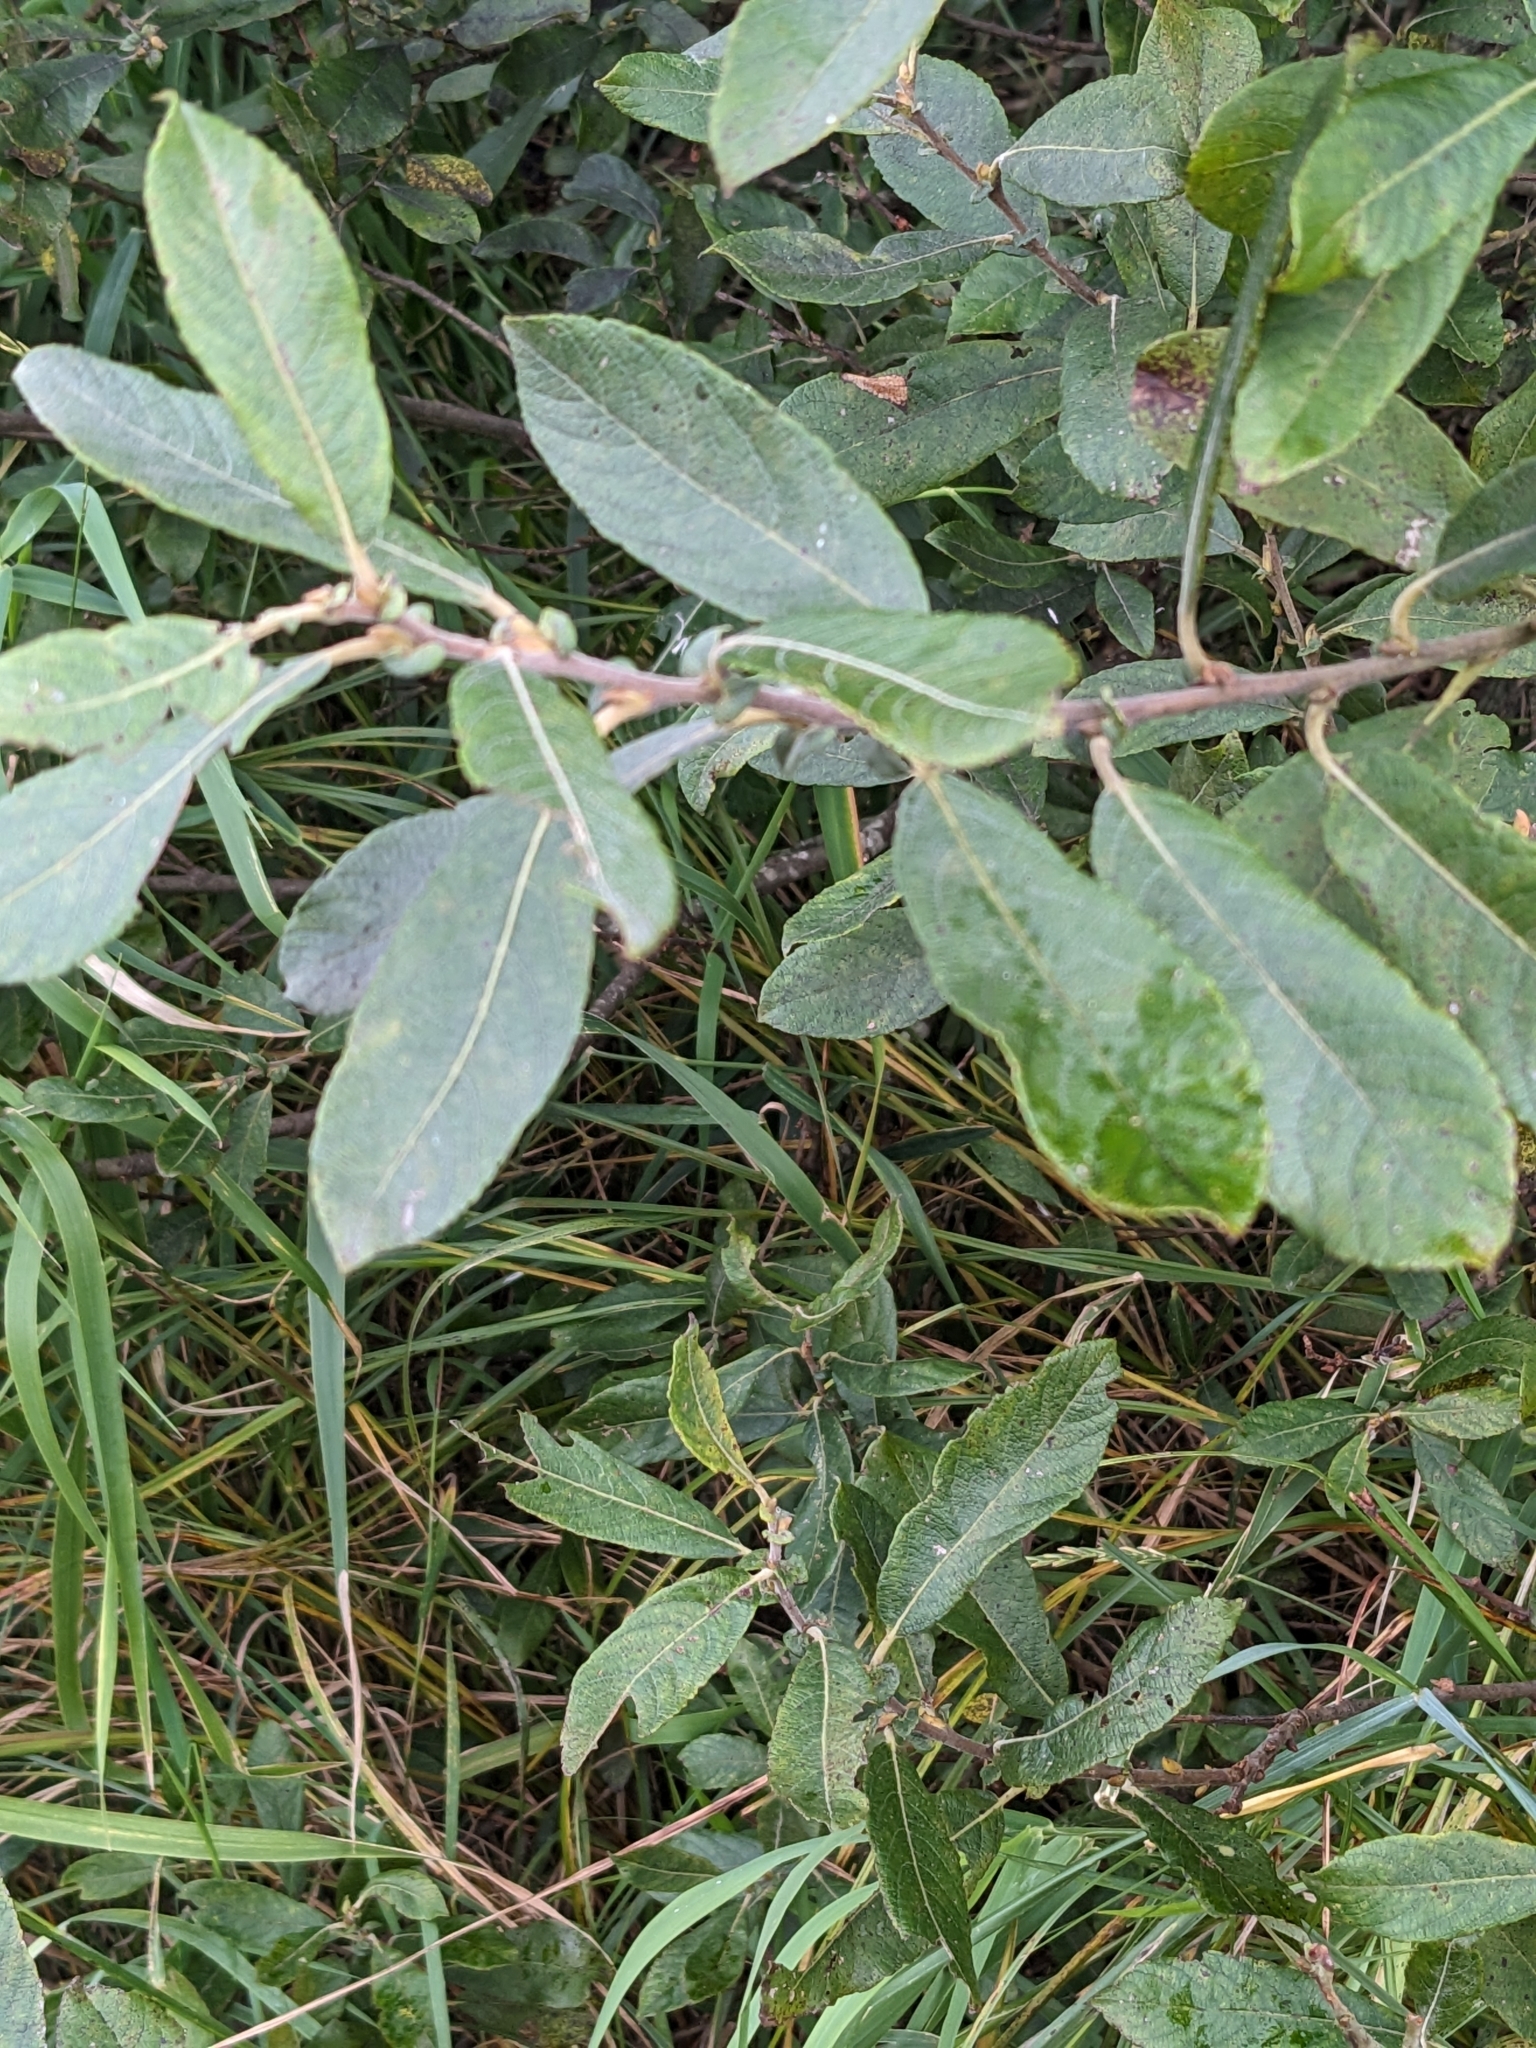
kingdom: Plantae
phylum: Tracheophyta
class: Magnoliopsida
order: Malpighiales
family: Salicaceae
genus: Salix
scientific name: Salix cinerea
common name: Common sallow
